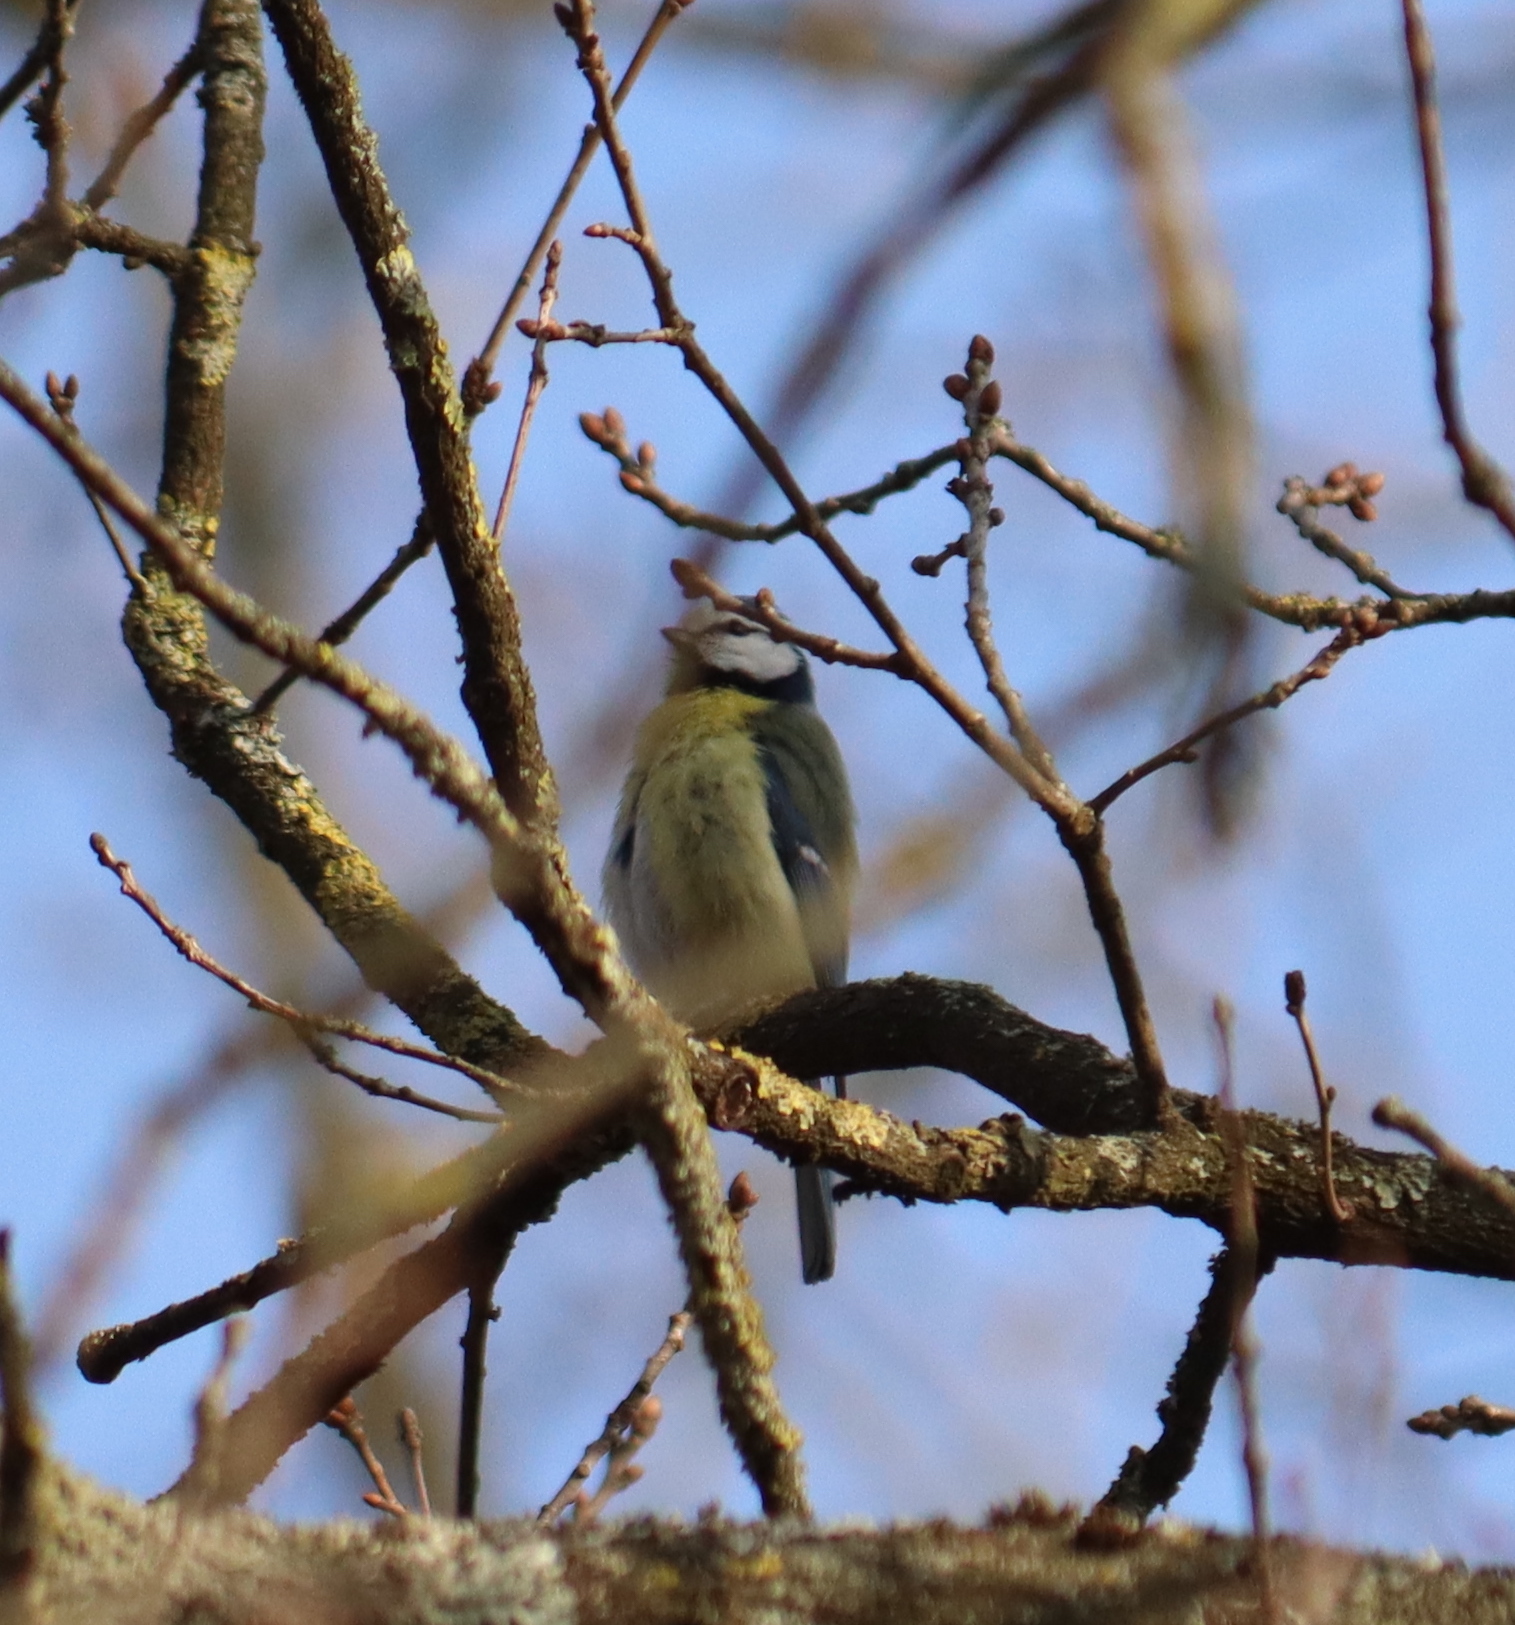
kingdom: Animalia
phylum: Chordata
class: Aves
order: Passeriformes
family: Paridae
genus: Cyanistes
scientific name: Cyanistes caeruleus
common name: Eurasian blue tit
